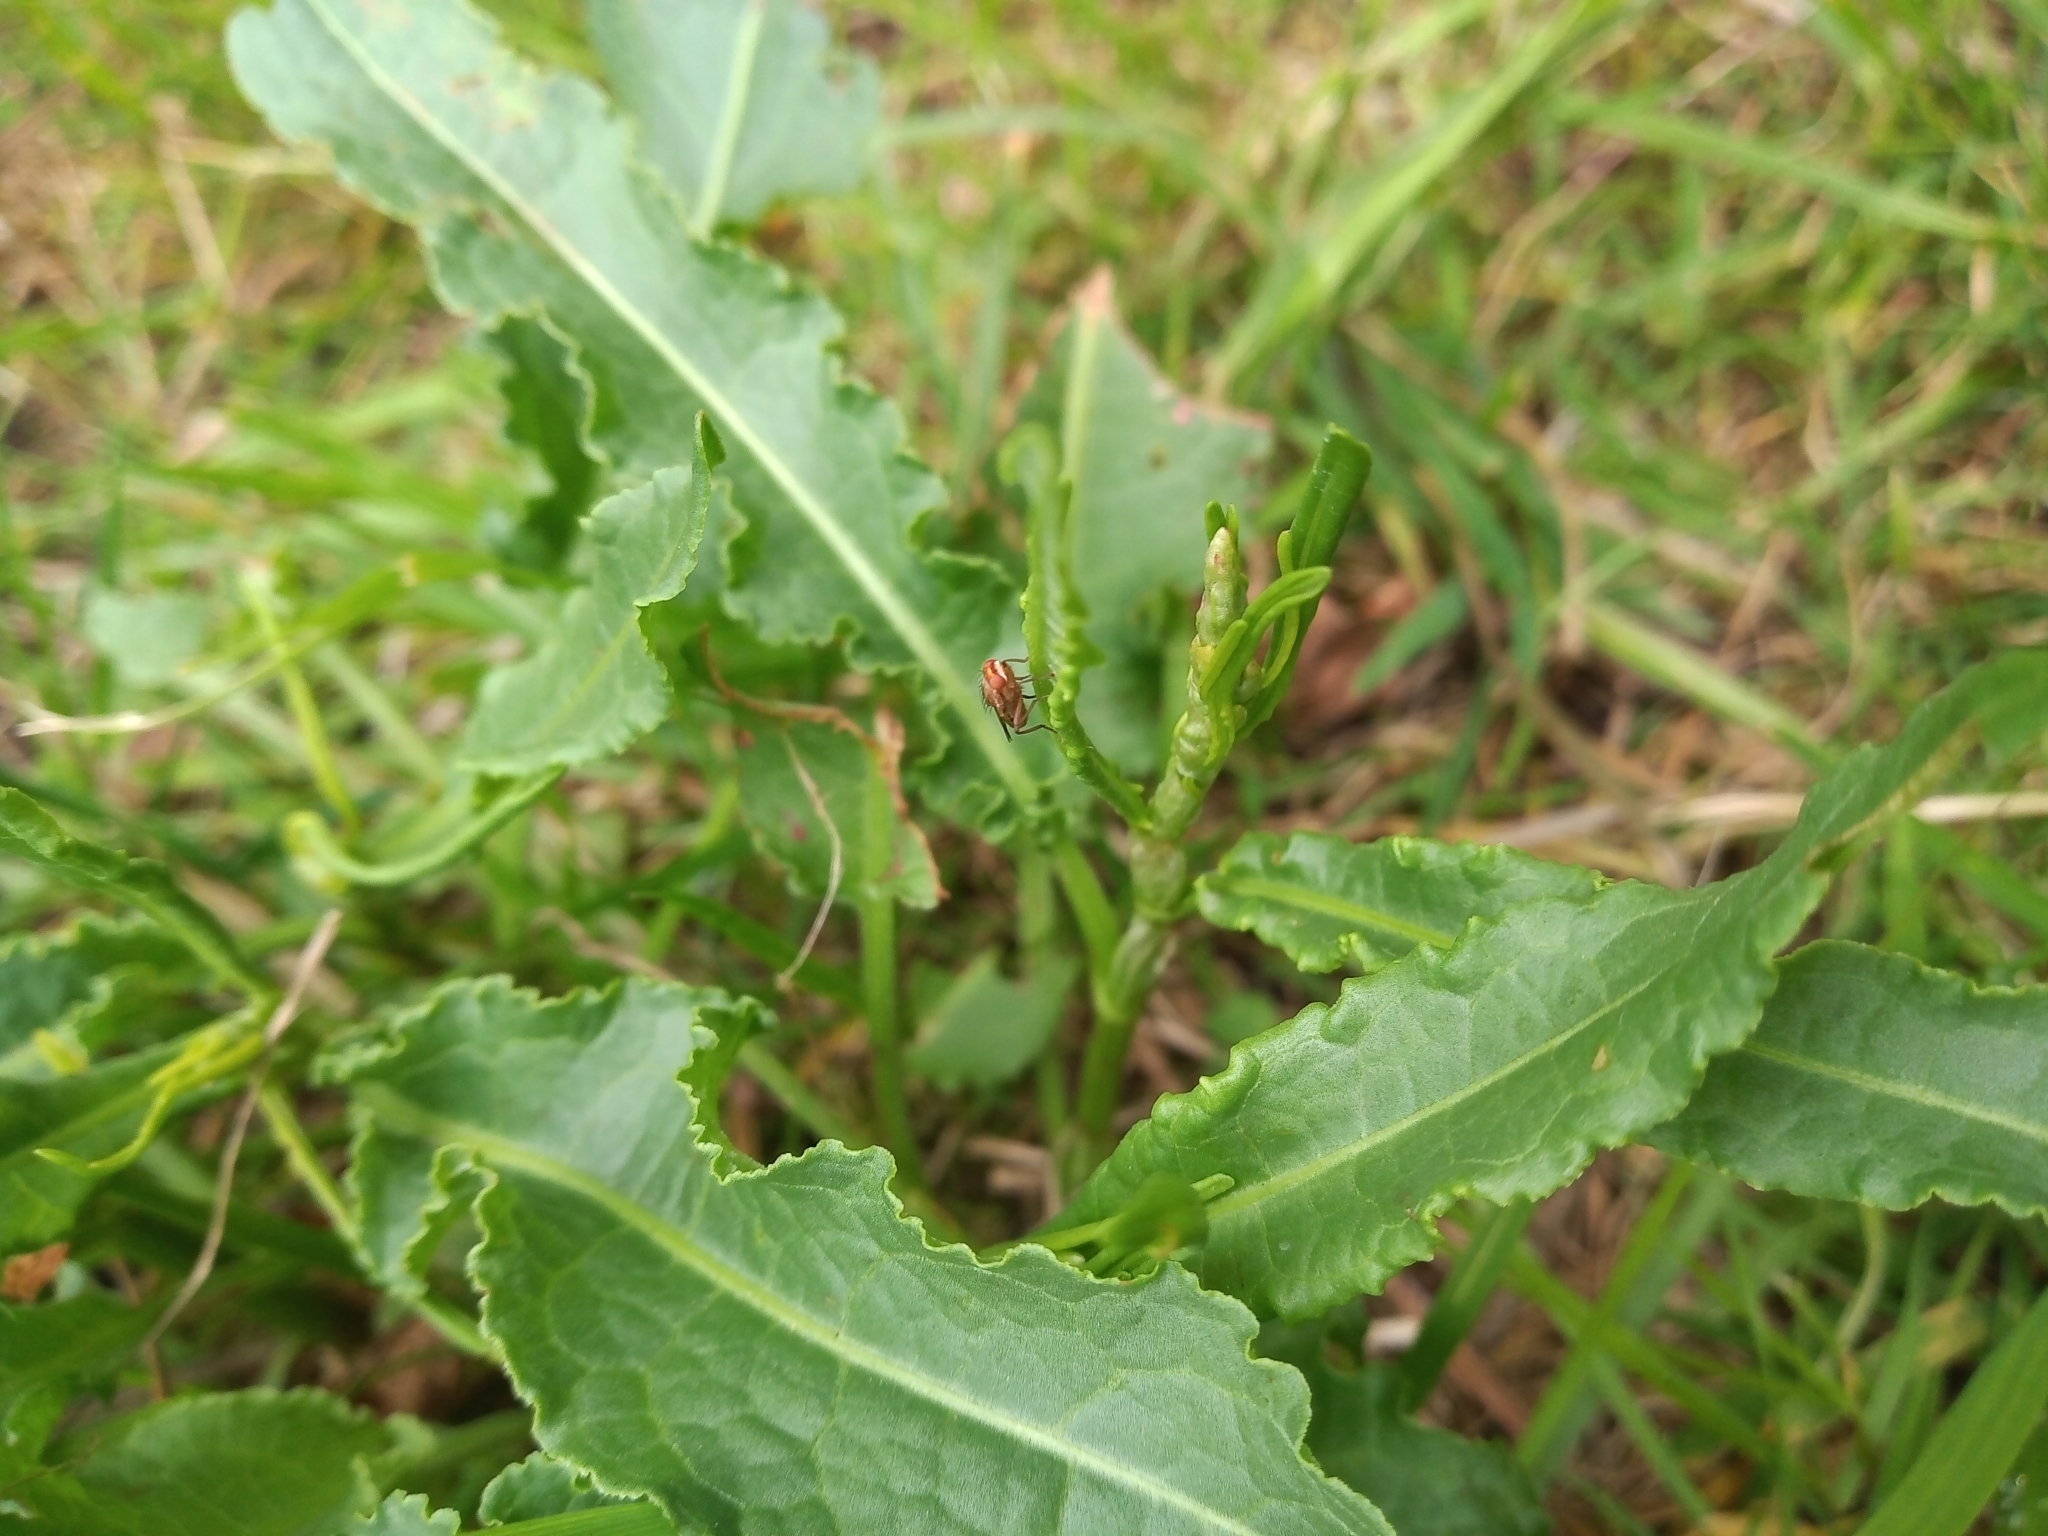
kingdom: Plantae
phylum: Tracheophyta
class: Magnoliopsida
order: Caryophyllales
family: Polygonaceae
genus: Rumex
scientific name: Rumex crispus
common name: Curled dock
